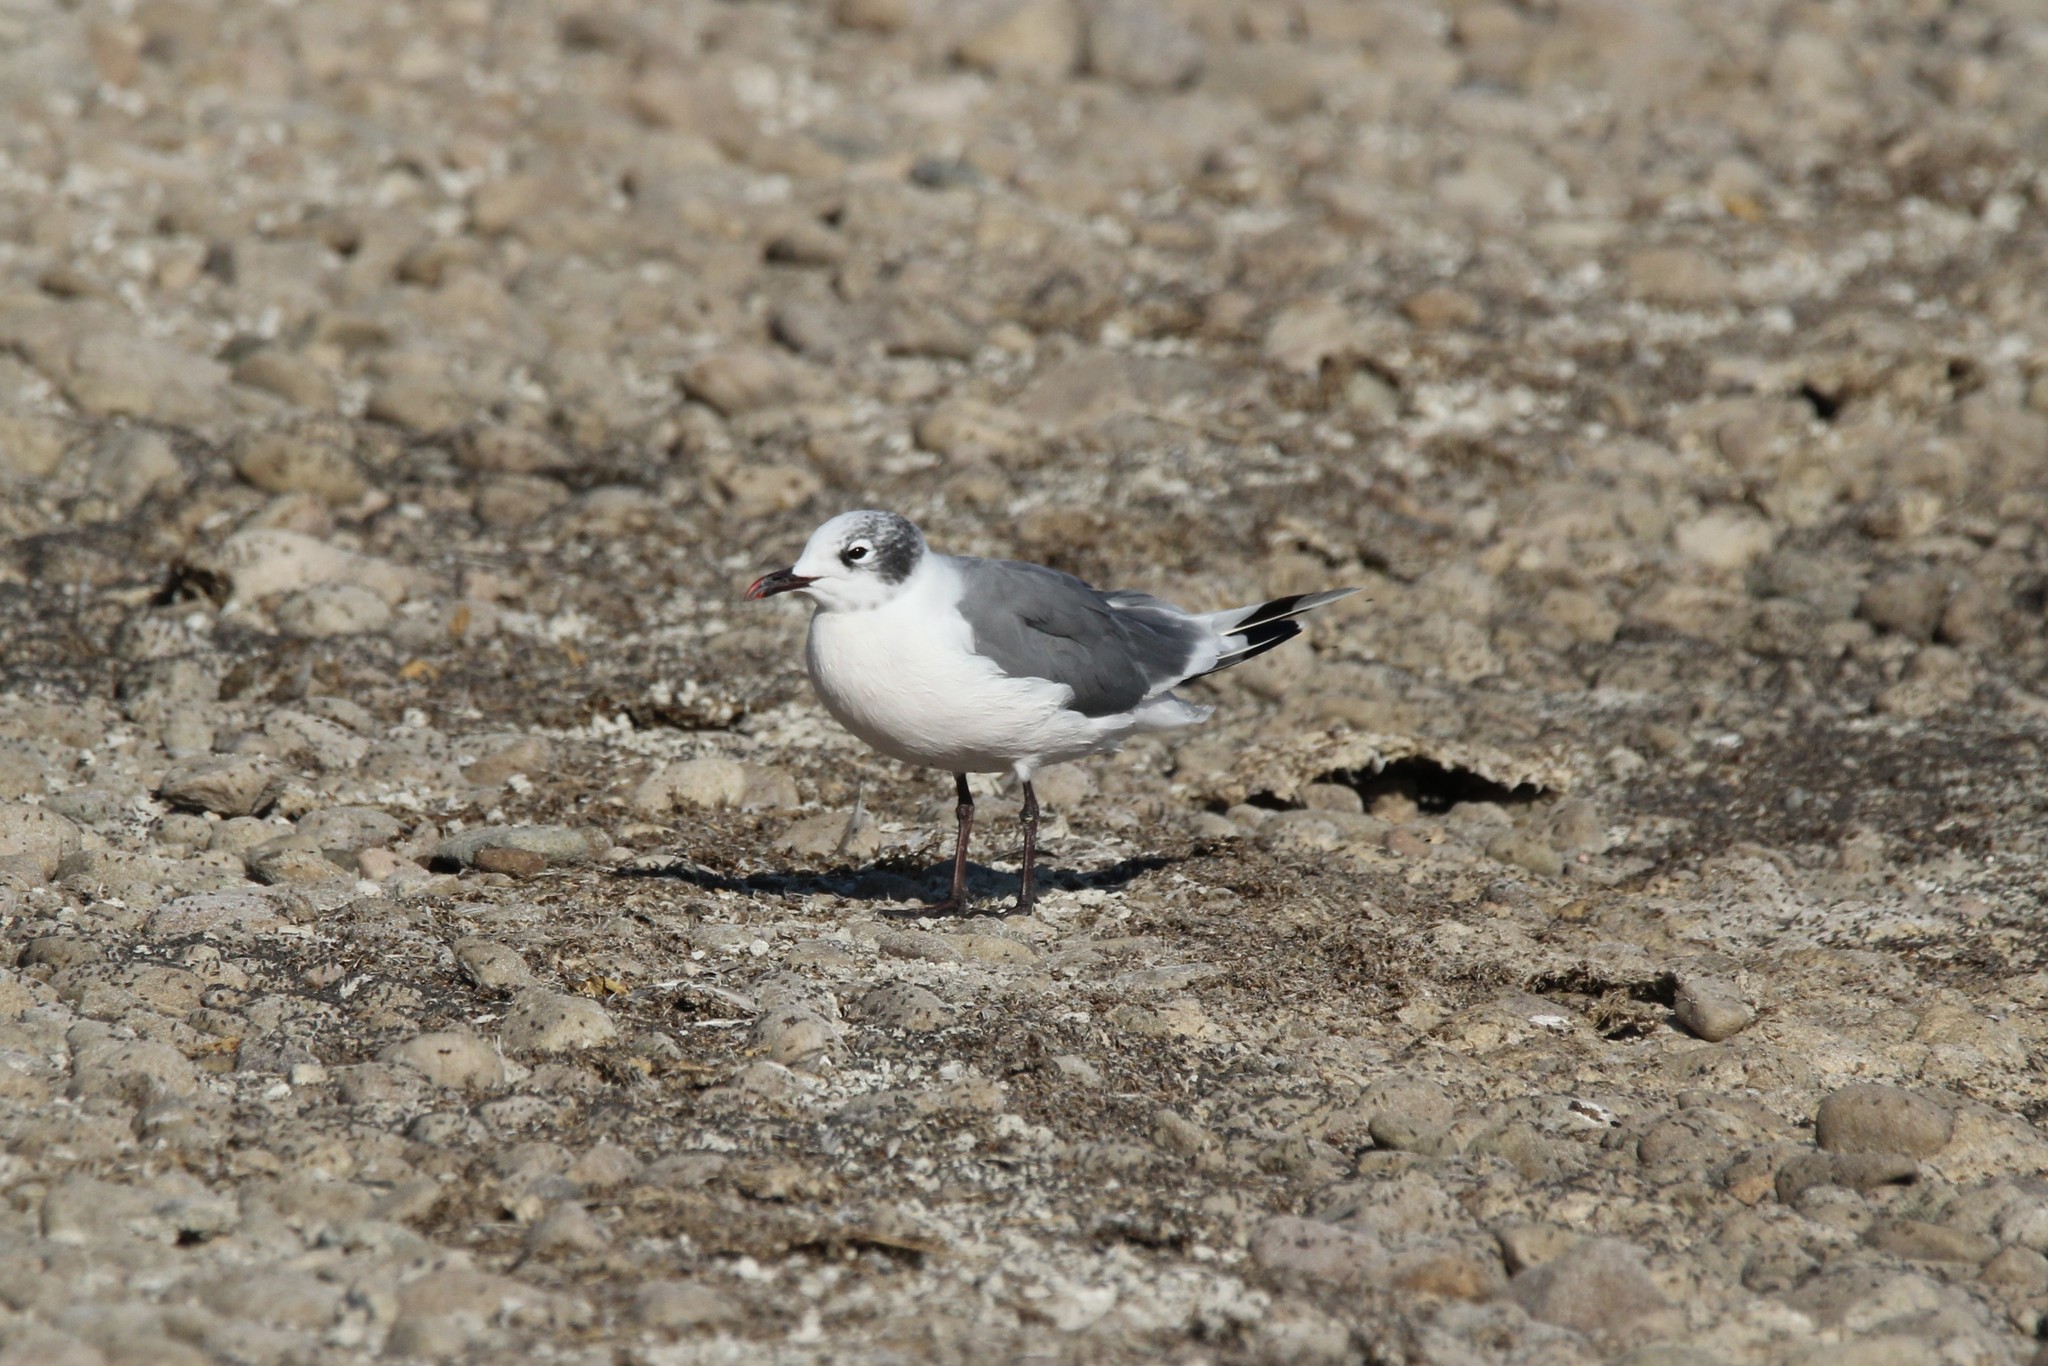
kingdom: Animalia
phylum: Chordata
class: Aves
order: Charadriiformes
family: Laridae
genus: Leucophaeus
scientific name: Leucophaeus pipixcan
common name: Franklin's gull
